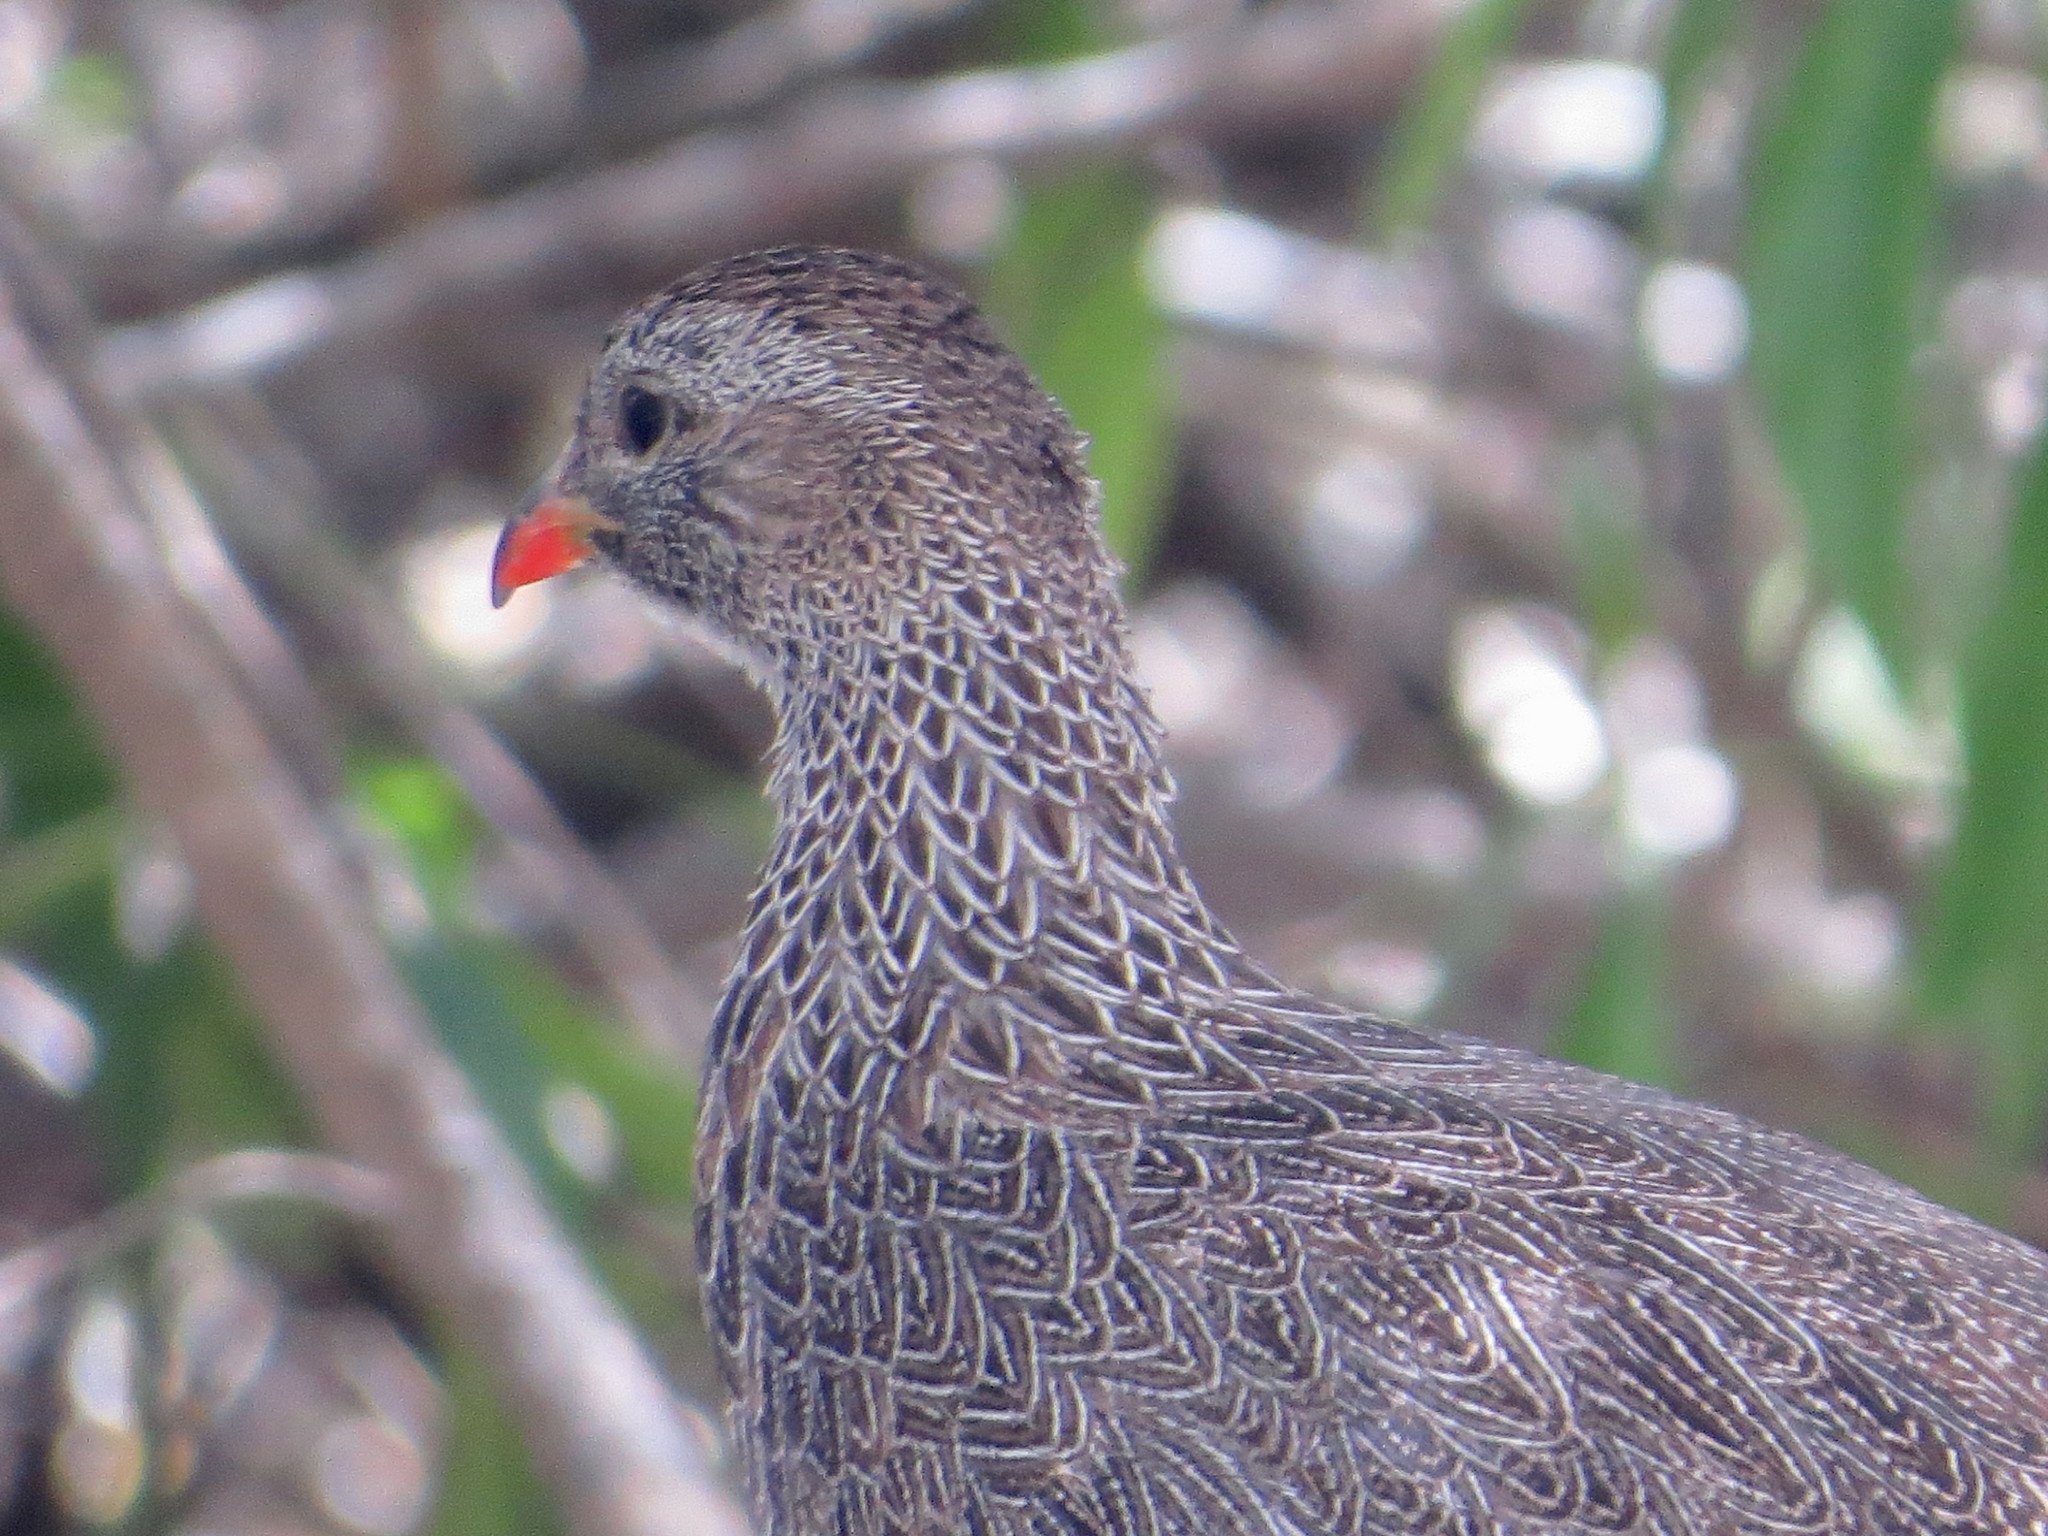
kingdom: Animalia
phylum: Chordata
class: Aves
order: Galliformes
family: Phasianidae
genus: Pternistis
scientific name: Pternistis capensis
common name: Cape spurfowl
